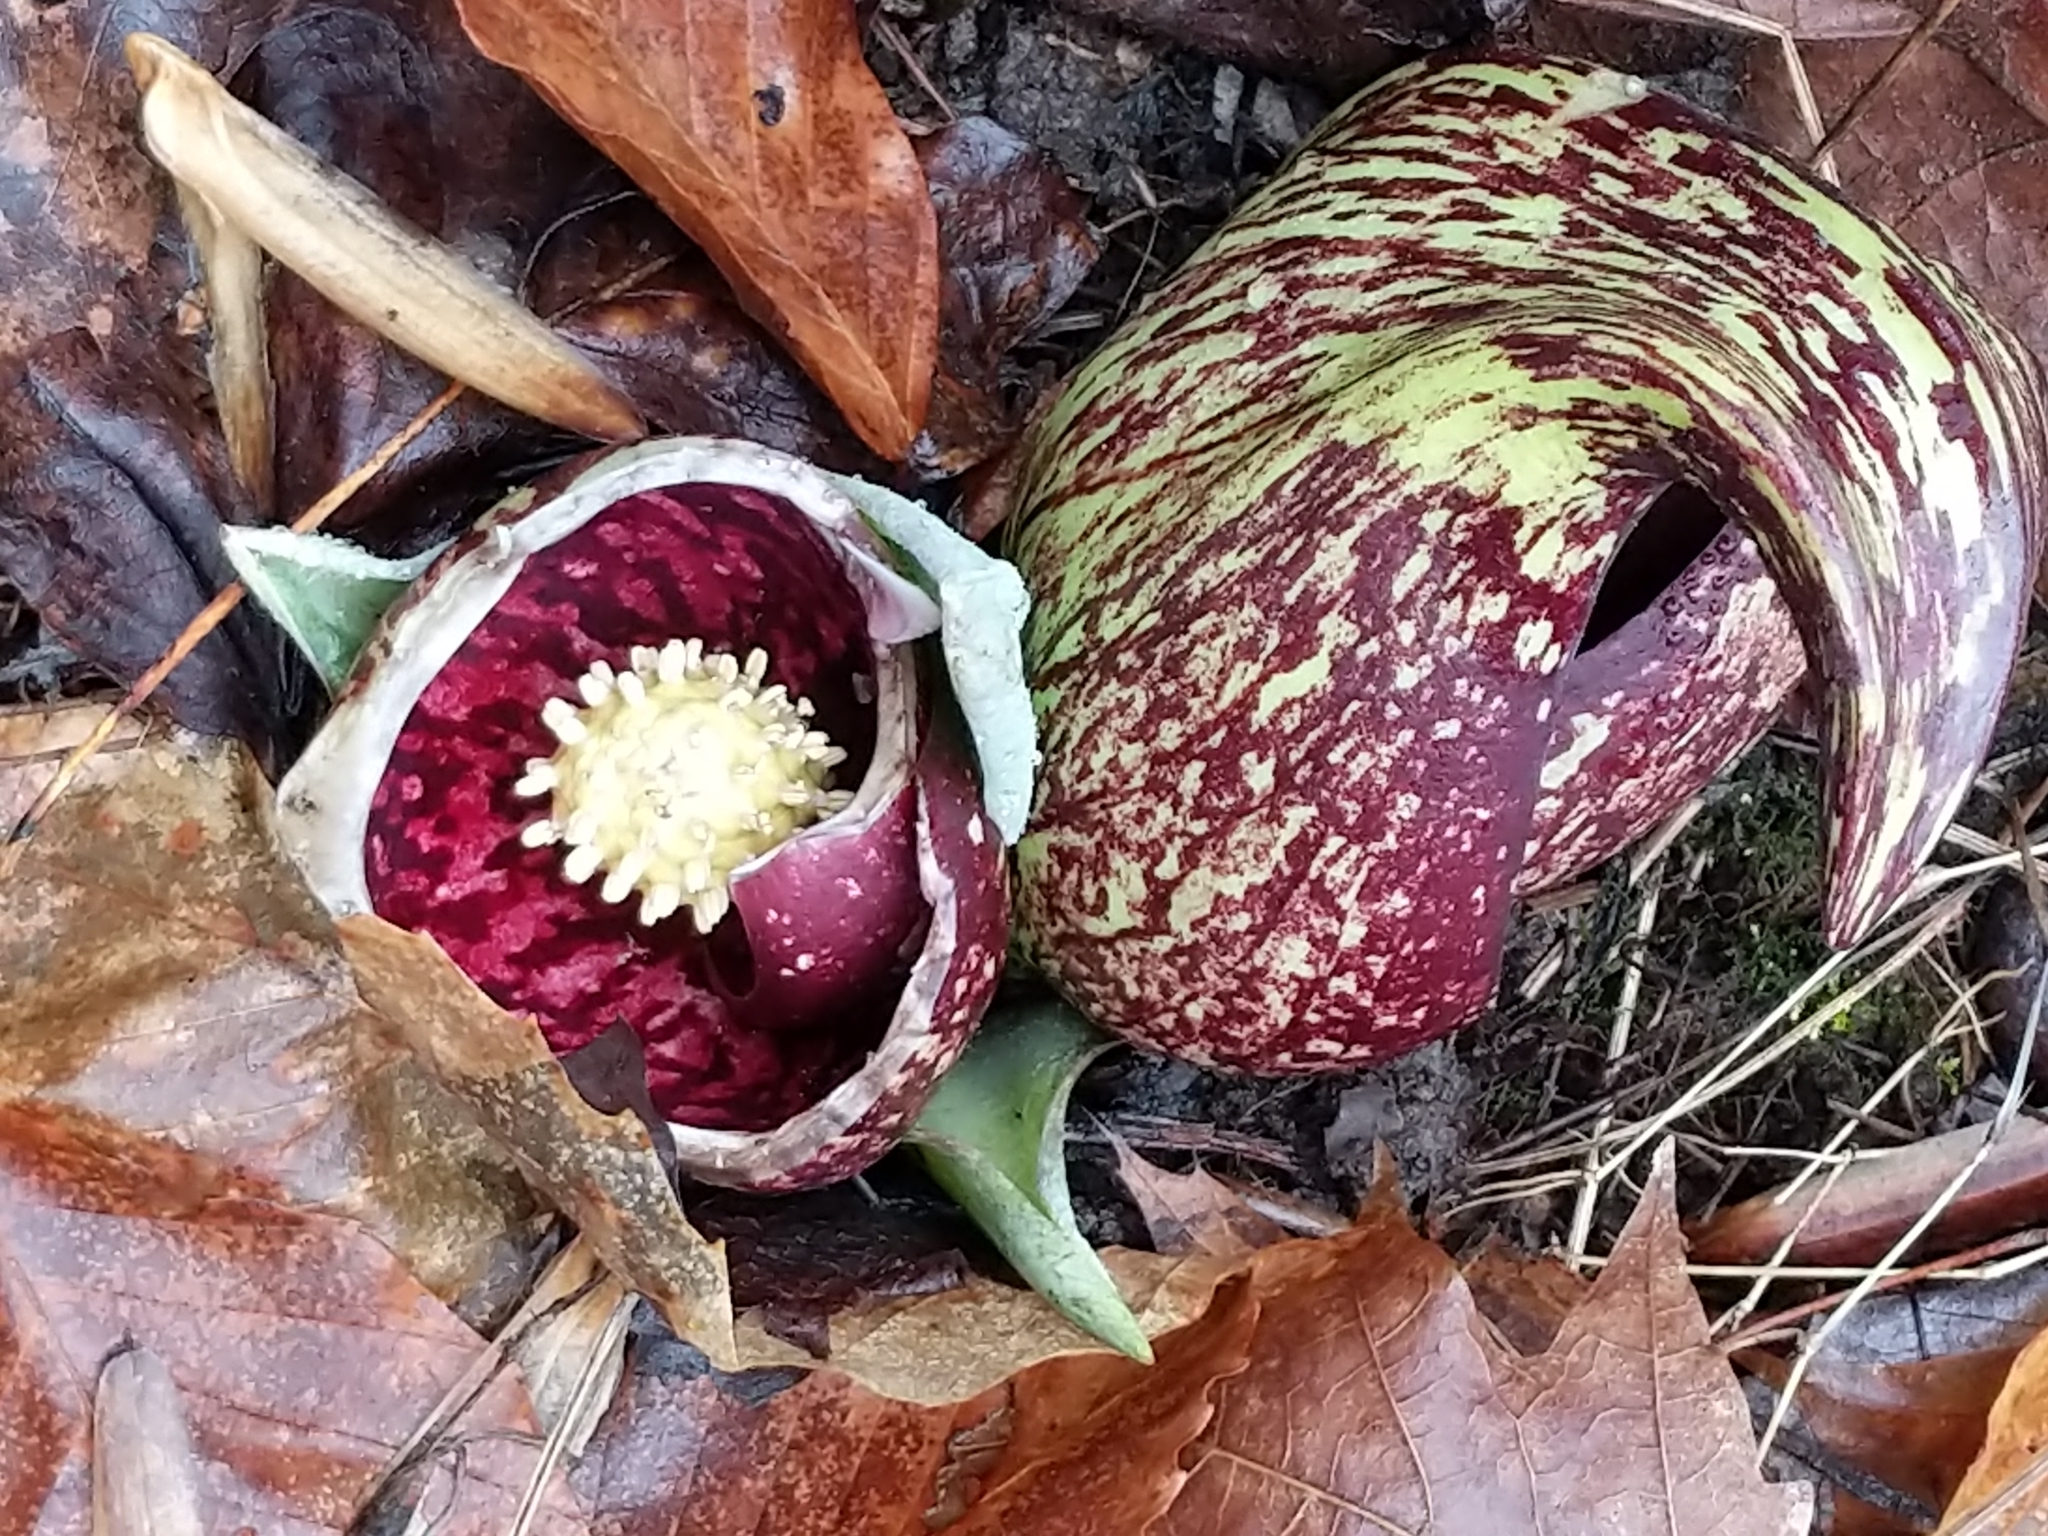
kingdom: Plantae
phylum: Tracheophyta
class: Liliopsida
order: Alismatales
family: Araceae
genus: Symplocarpus
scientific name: Symplocarpus foetidus
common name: Eastern skunk cabbage
